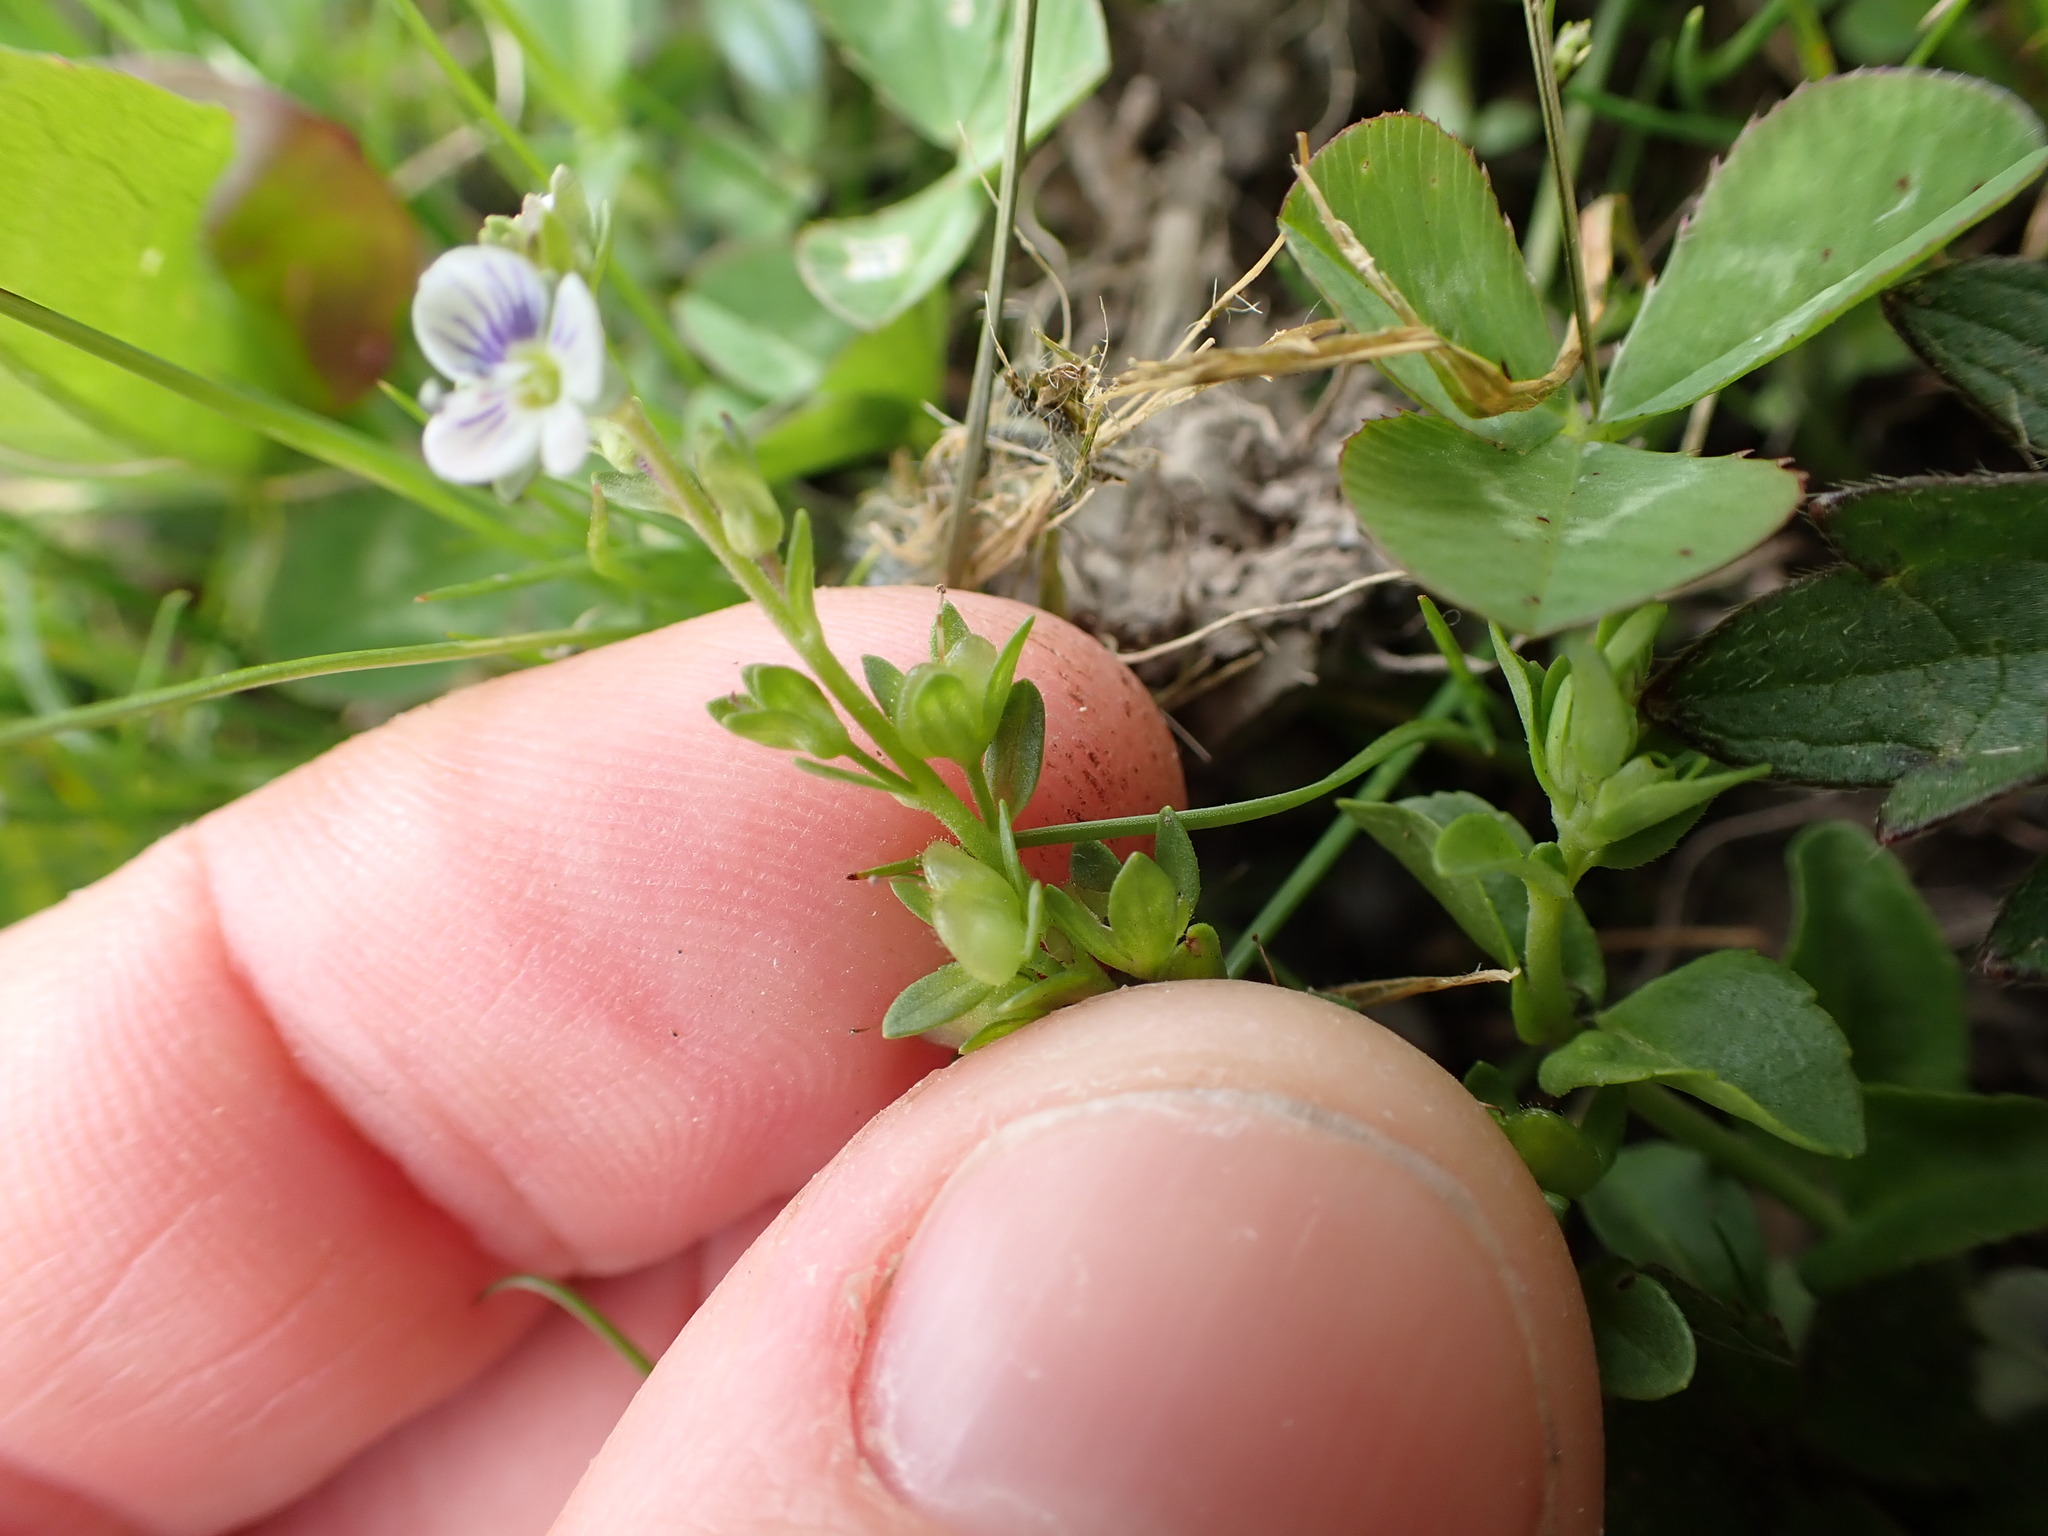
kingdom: Plantae
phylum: Tracheophyta
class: Magnoliopsida
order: Lamiales
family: Plantaginaceae
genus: Veronica
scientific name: Veronica serpyllifolia
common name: Thyme-leaved speedwell
